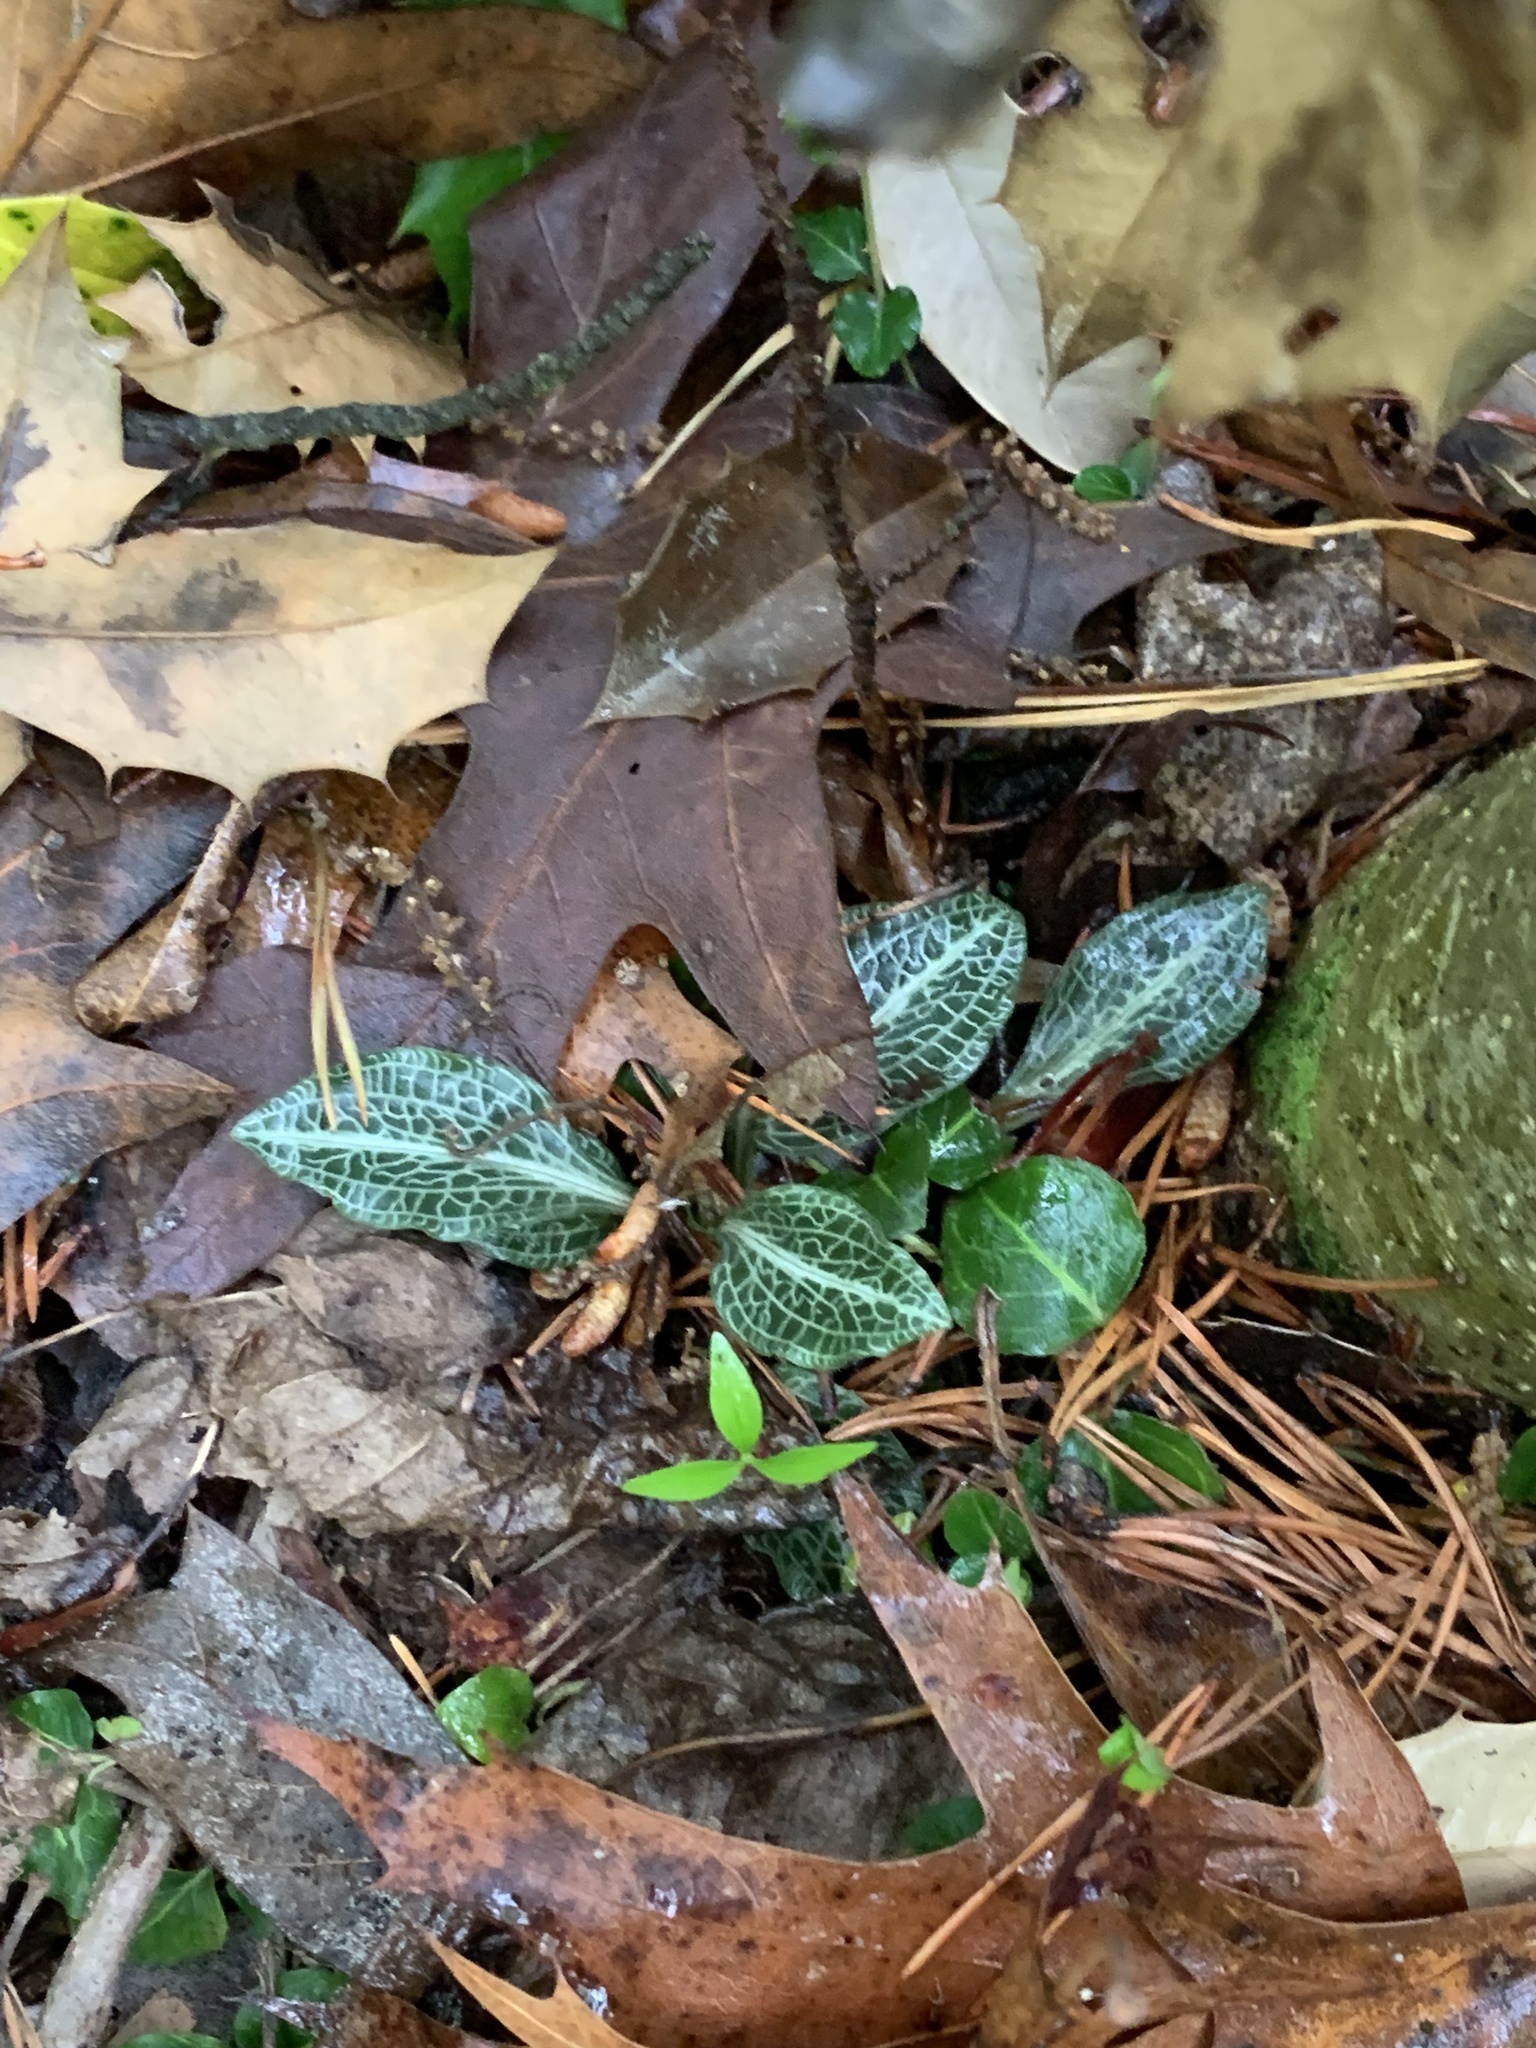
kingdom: Plantae
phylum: Tracheophyta
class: Liliopsida
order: Asparagales
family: Orchidaceae
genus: Goodyera
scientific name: Goodyera pubescens
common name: Downy rattlesnake-plantain
